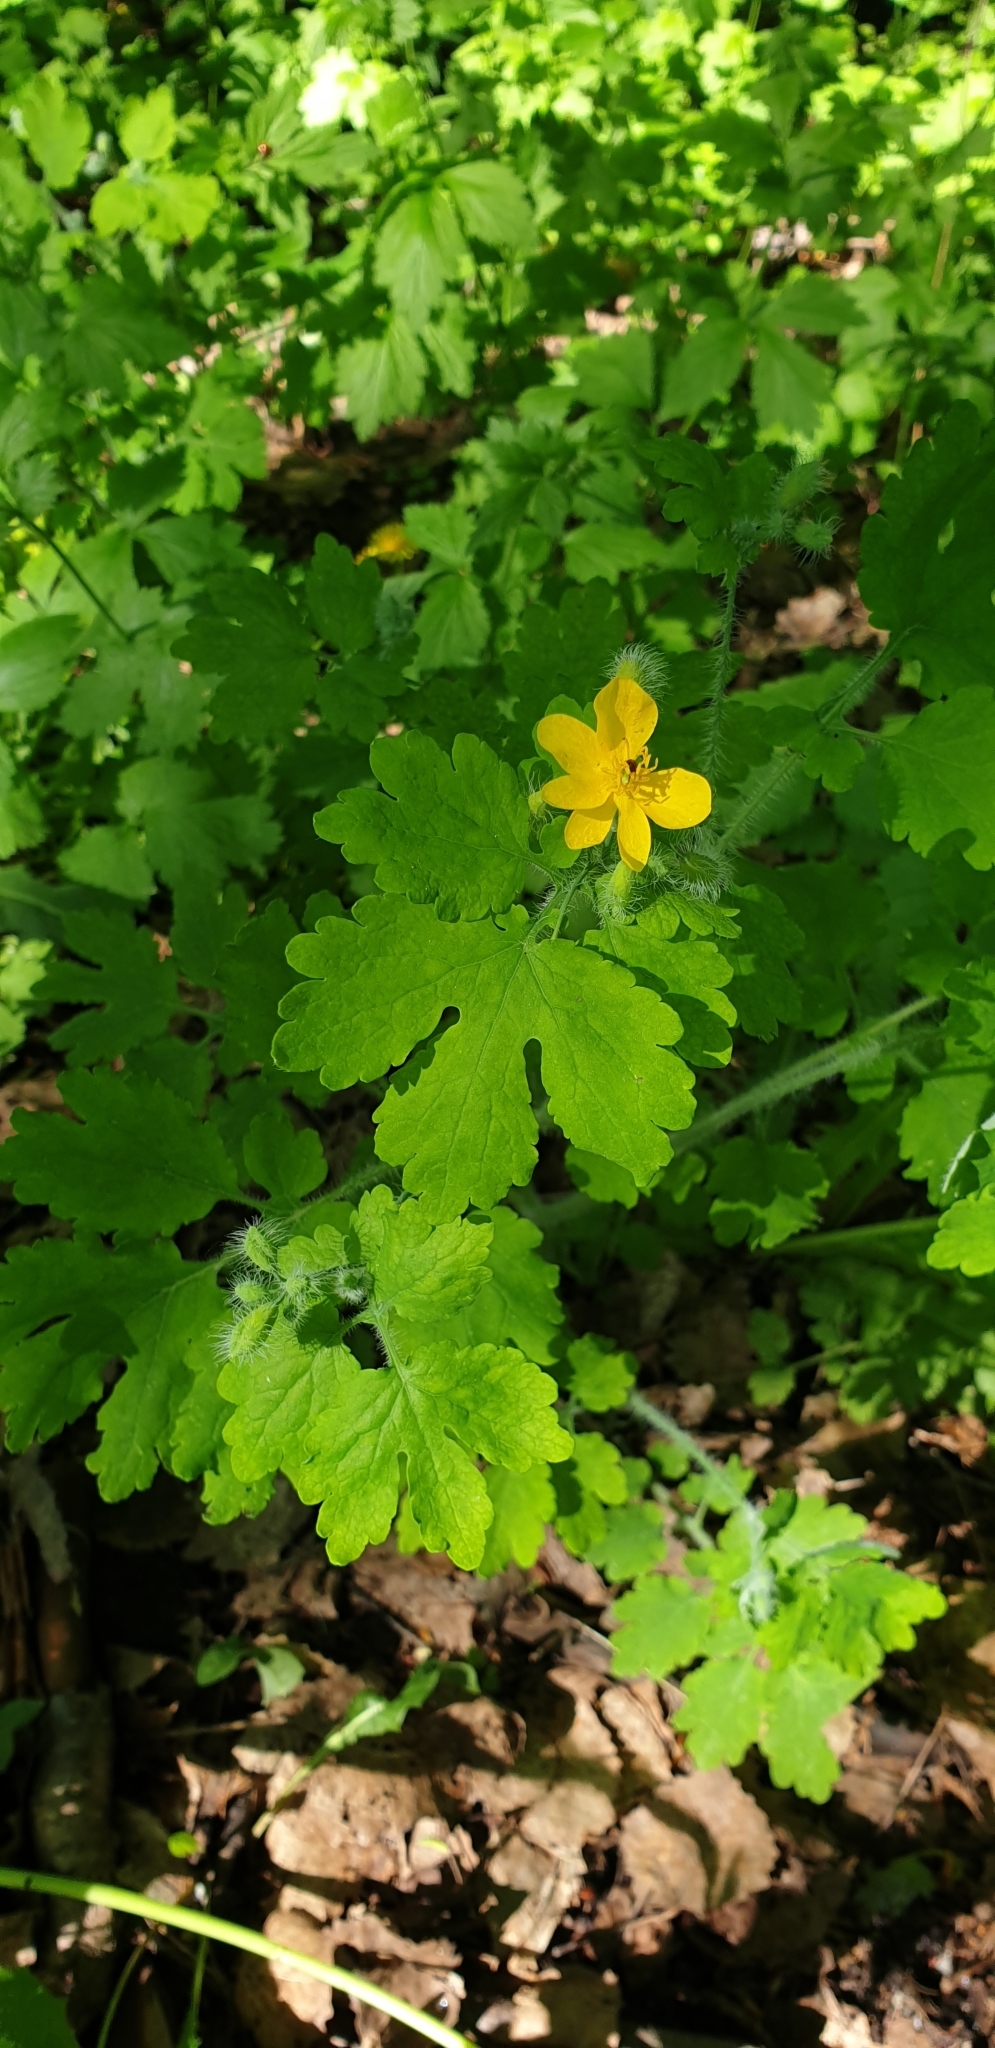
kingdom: Plantae
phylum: Tracheophyta
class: Magnoliopsida
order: Ranunculales
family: Papaveraceae
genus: Chelidonium
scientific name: Chelidonium majus
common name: Greater celandine
